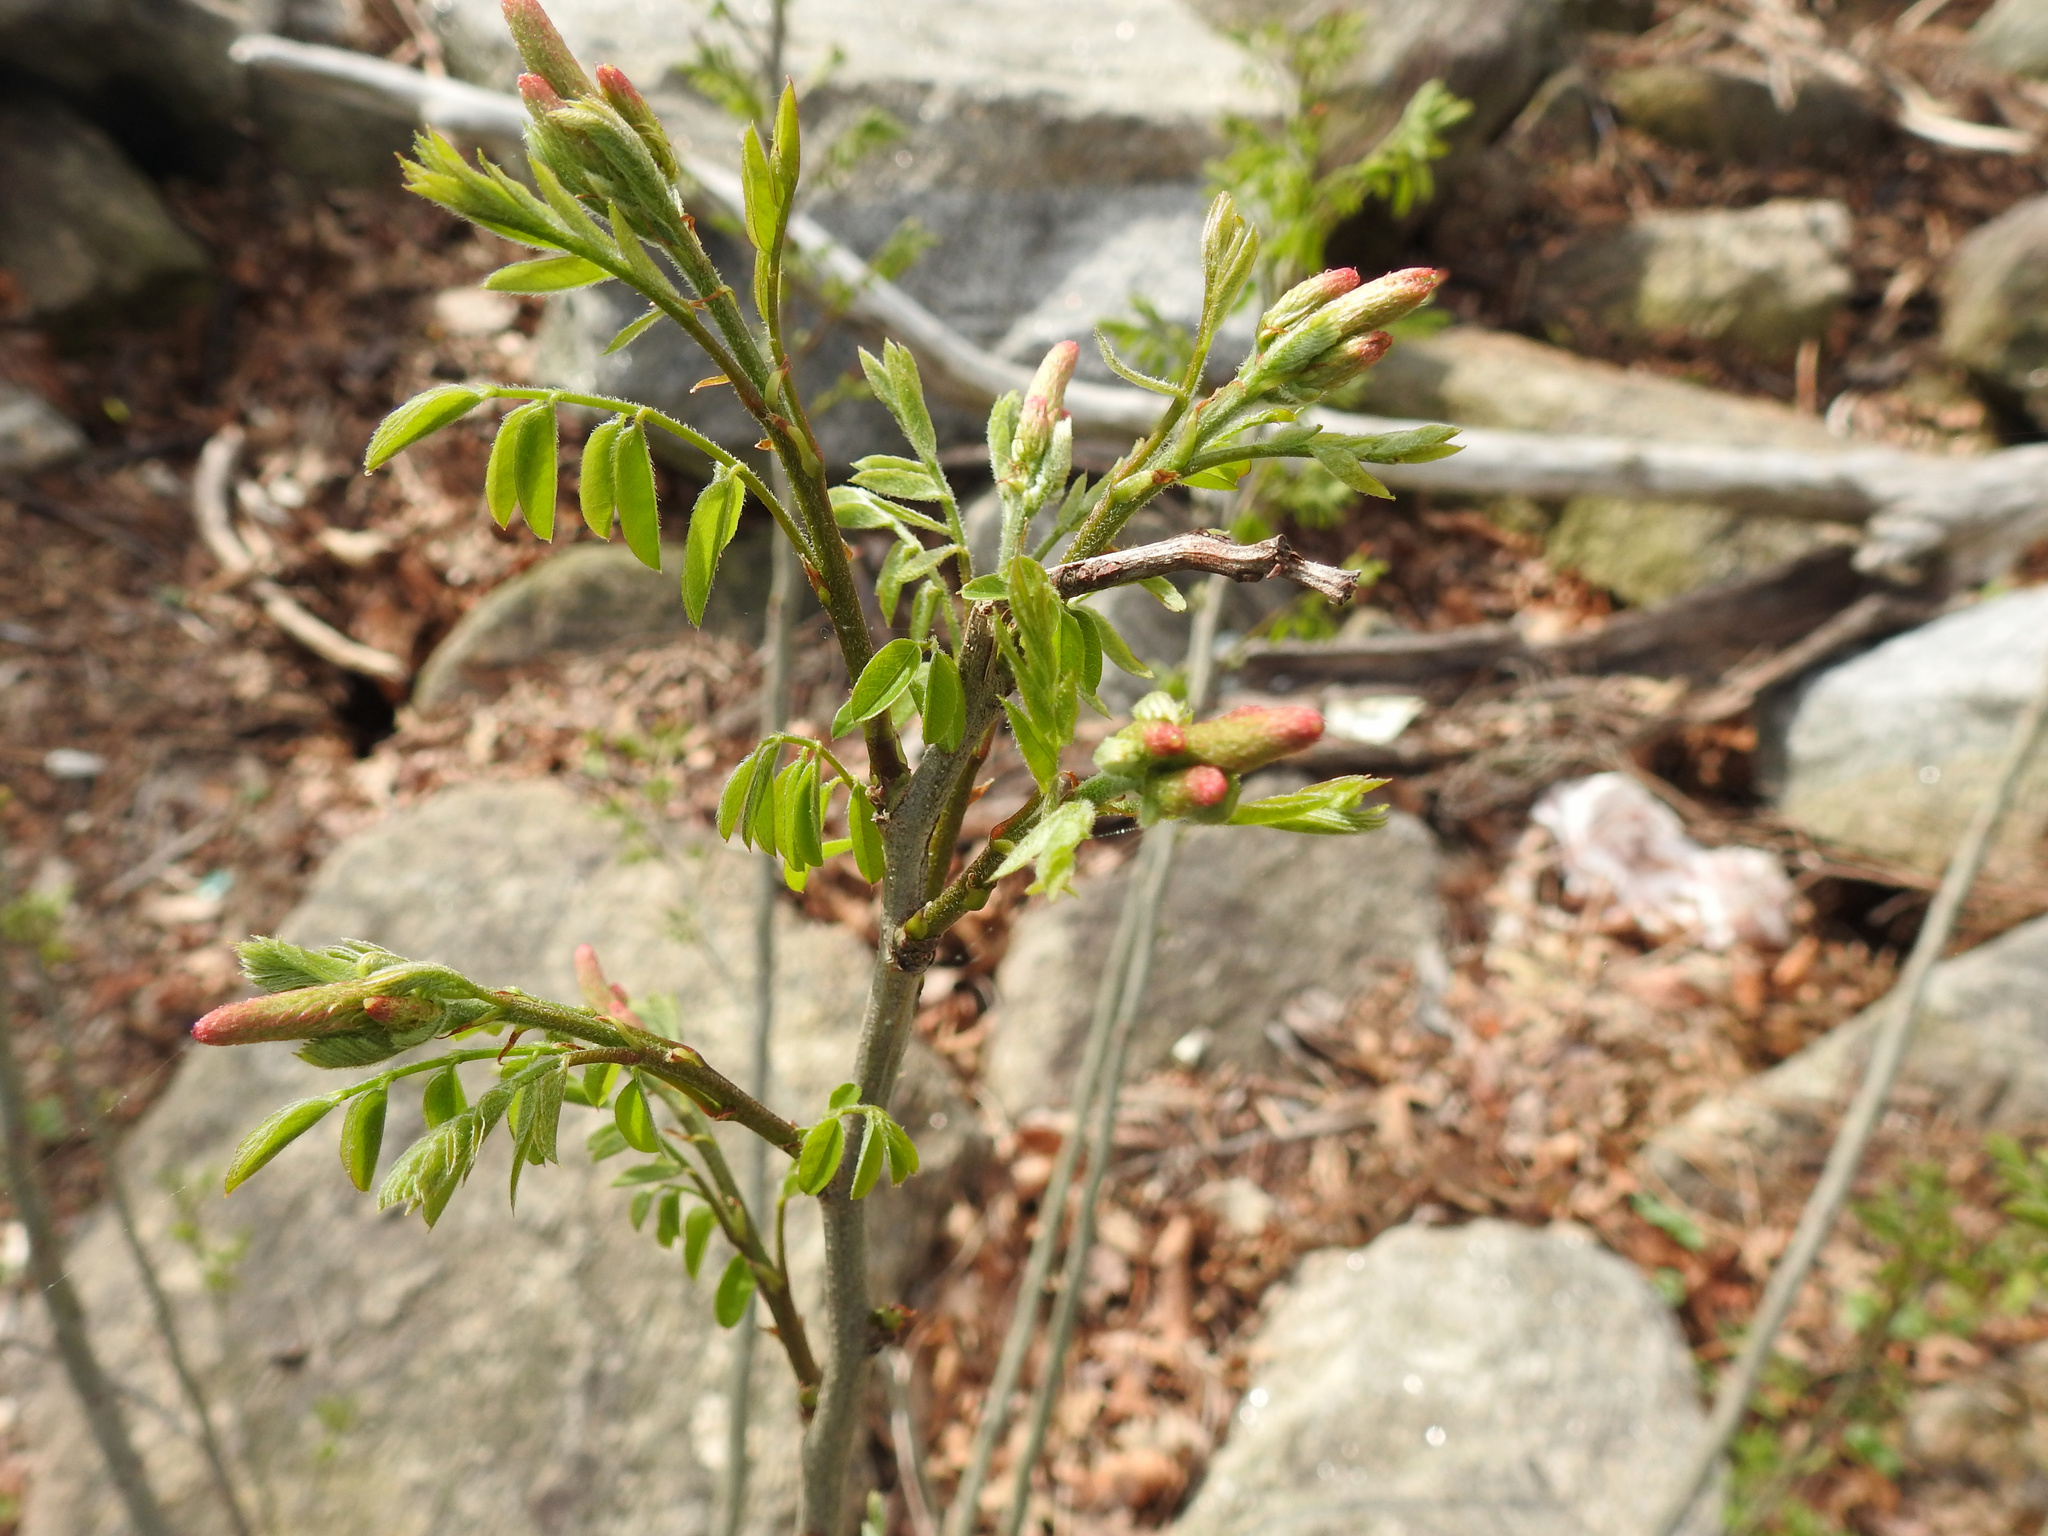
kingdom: Plantae
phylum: Tracheophyta
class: Magnoliopsida
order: Fabales
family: Fabaceae
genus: Amorpha
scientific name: Amorpha fruticosa
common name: False indigo
